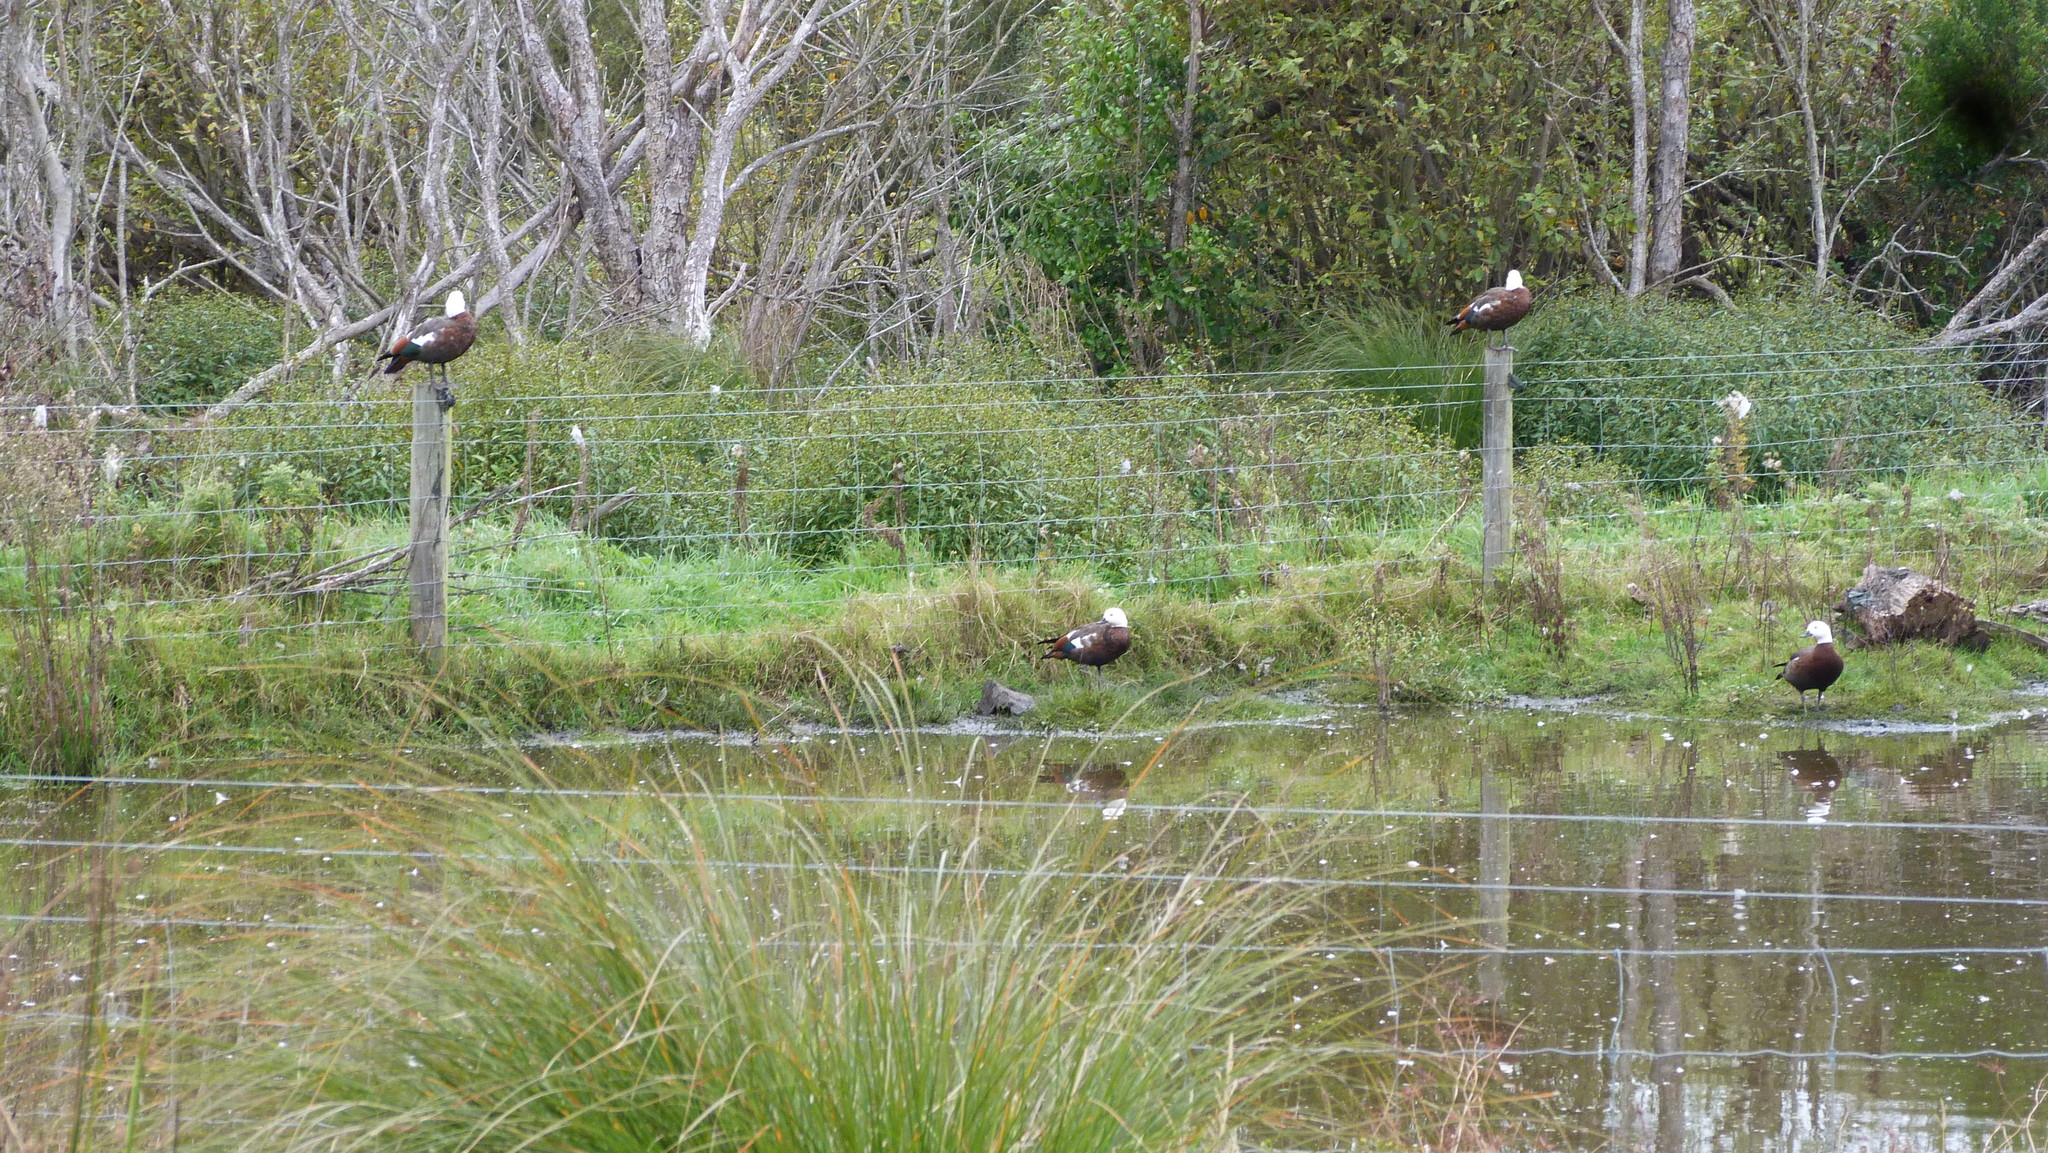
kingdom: Plantae
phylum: Tracheophyta
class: Magnoliopsida
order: Asterales
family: Asteraceae
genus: Bidens
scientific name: Bidens frondosa
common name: Beggarticks
